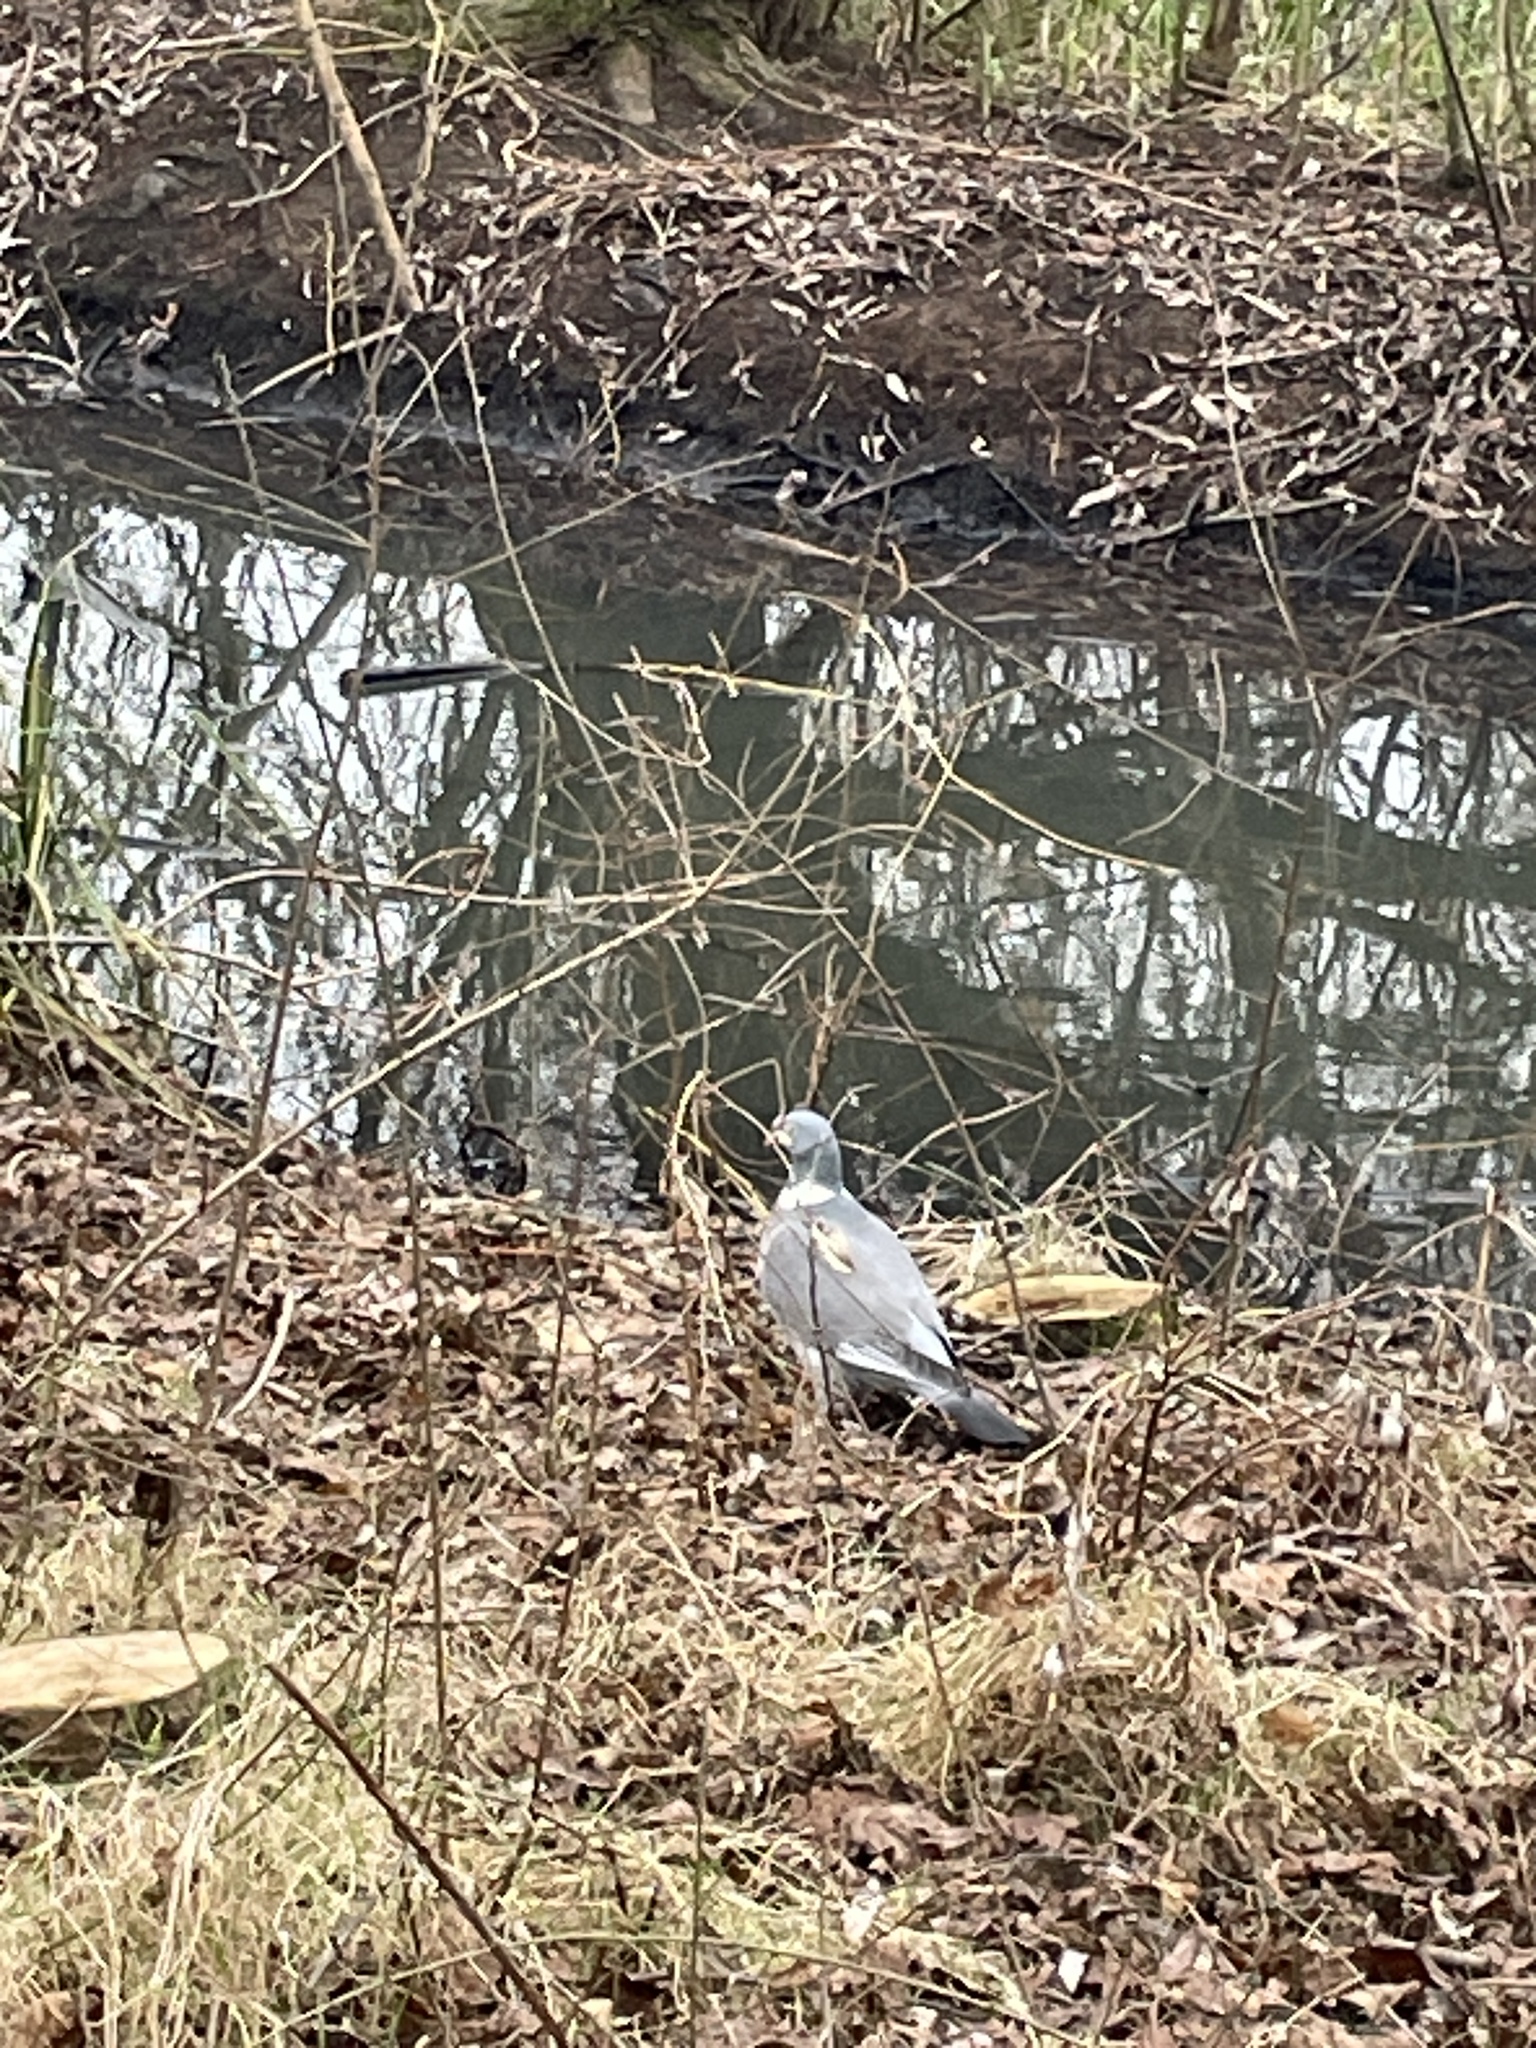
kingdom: Animalia
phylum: Chordata
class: Aves
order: Columbiformes
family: Columbidae
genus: Columba
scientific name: Columba palumbus
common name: Common wood pigeon
